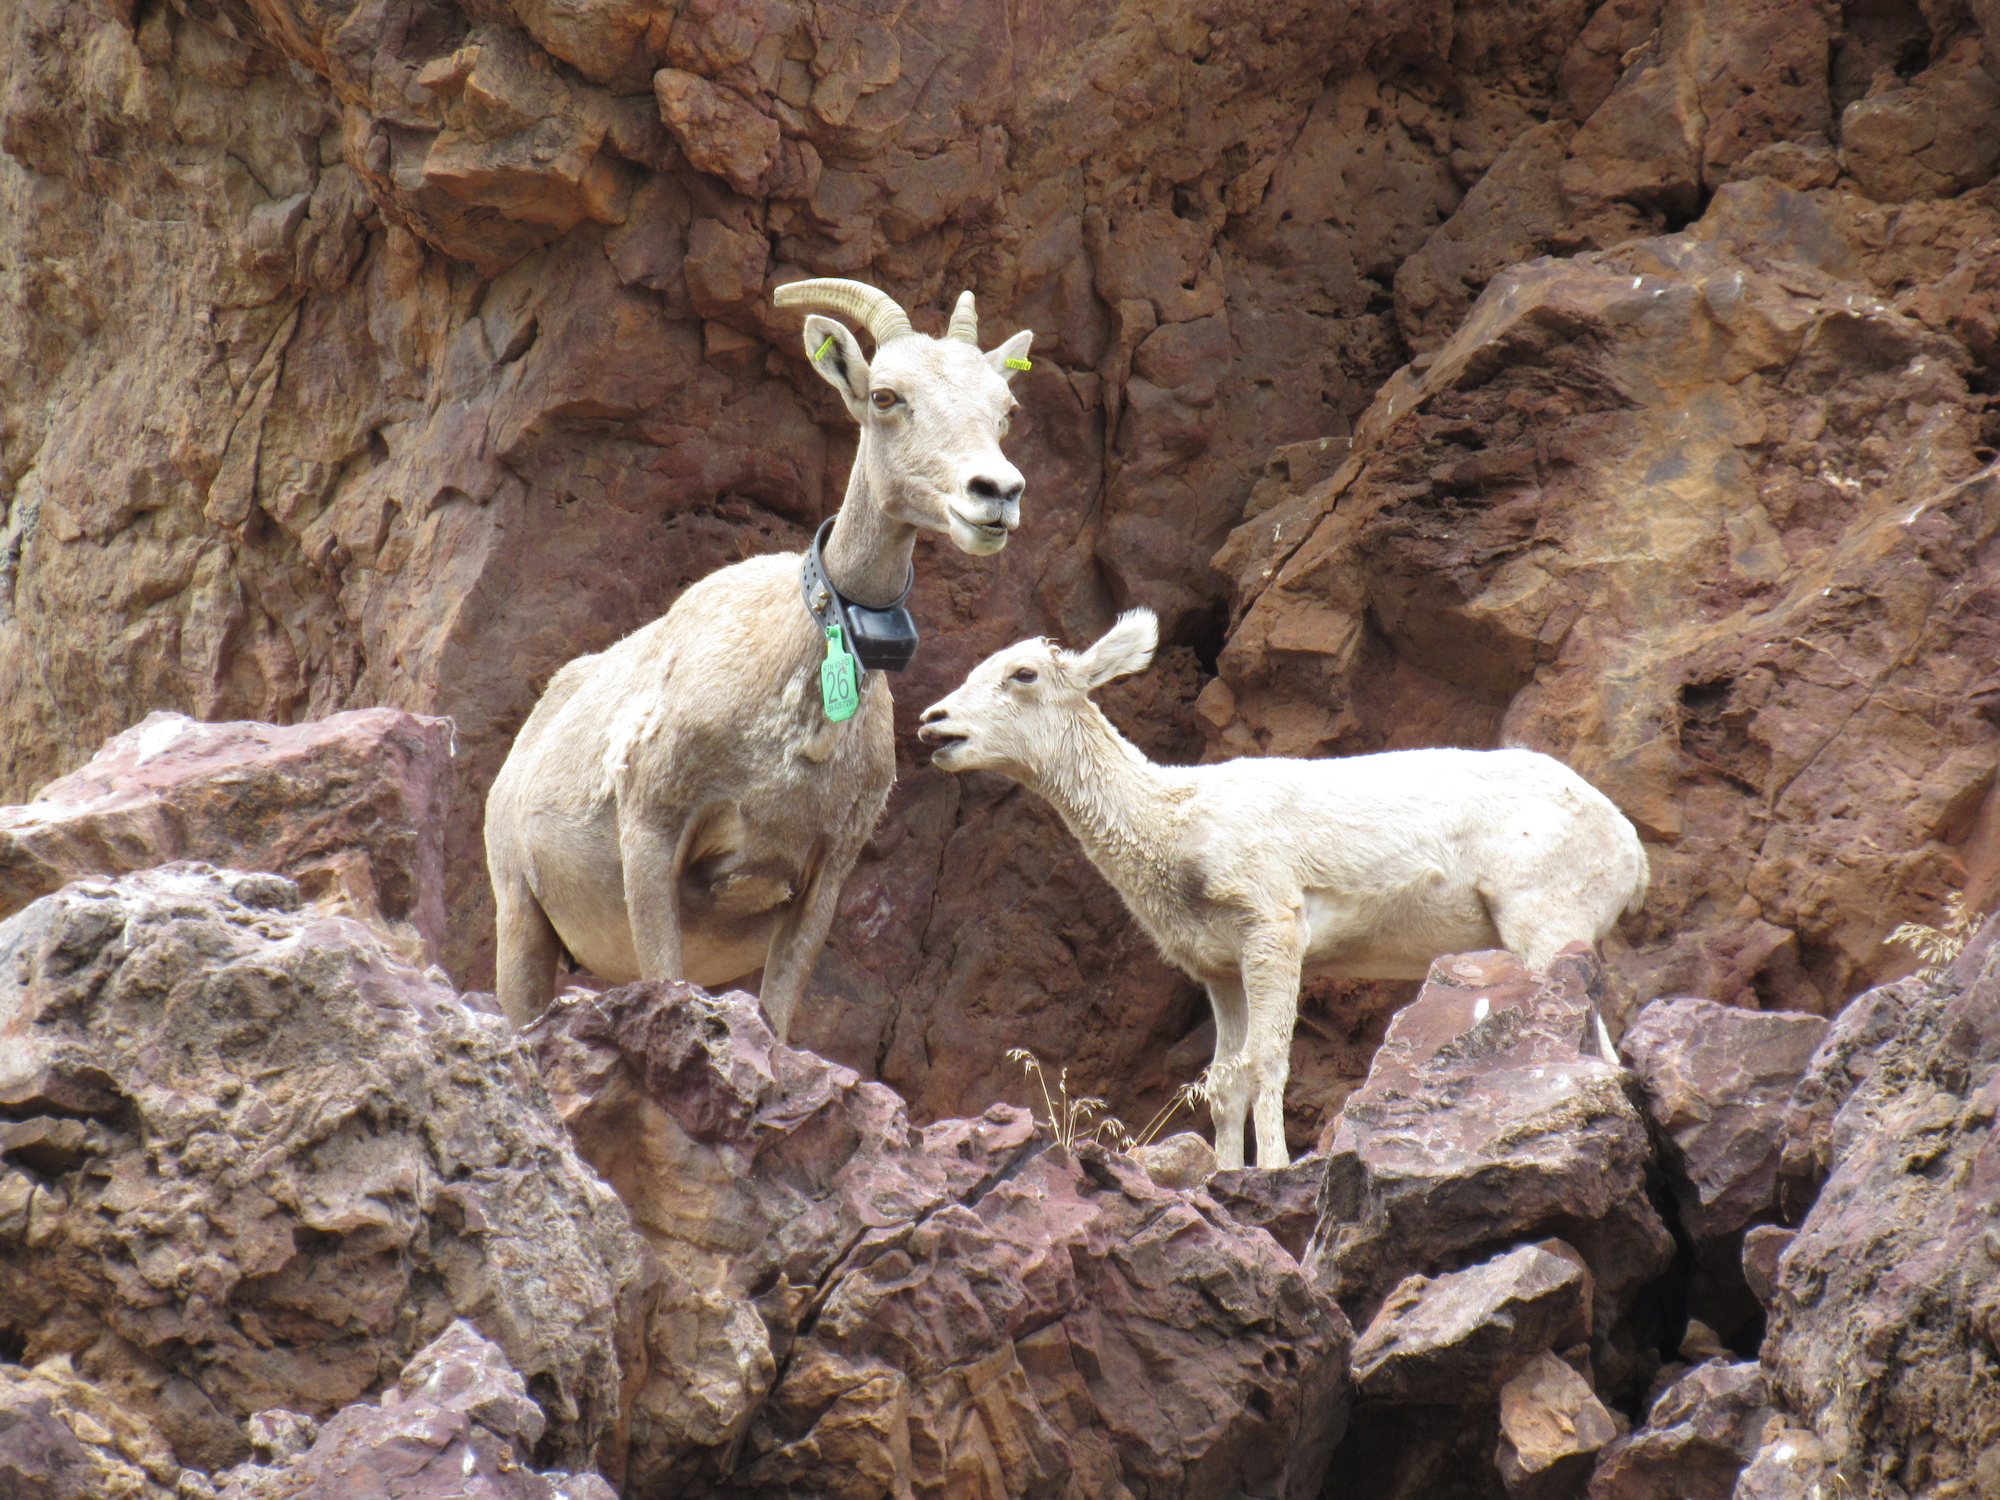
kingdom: Animalia
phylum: Chordata
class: Mammalia
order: Artiodactyla
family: Bovidae
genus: Ovis
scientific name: Ovis canadensis
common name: Bighorn sheep
